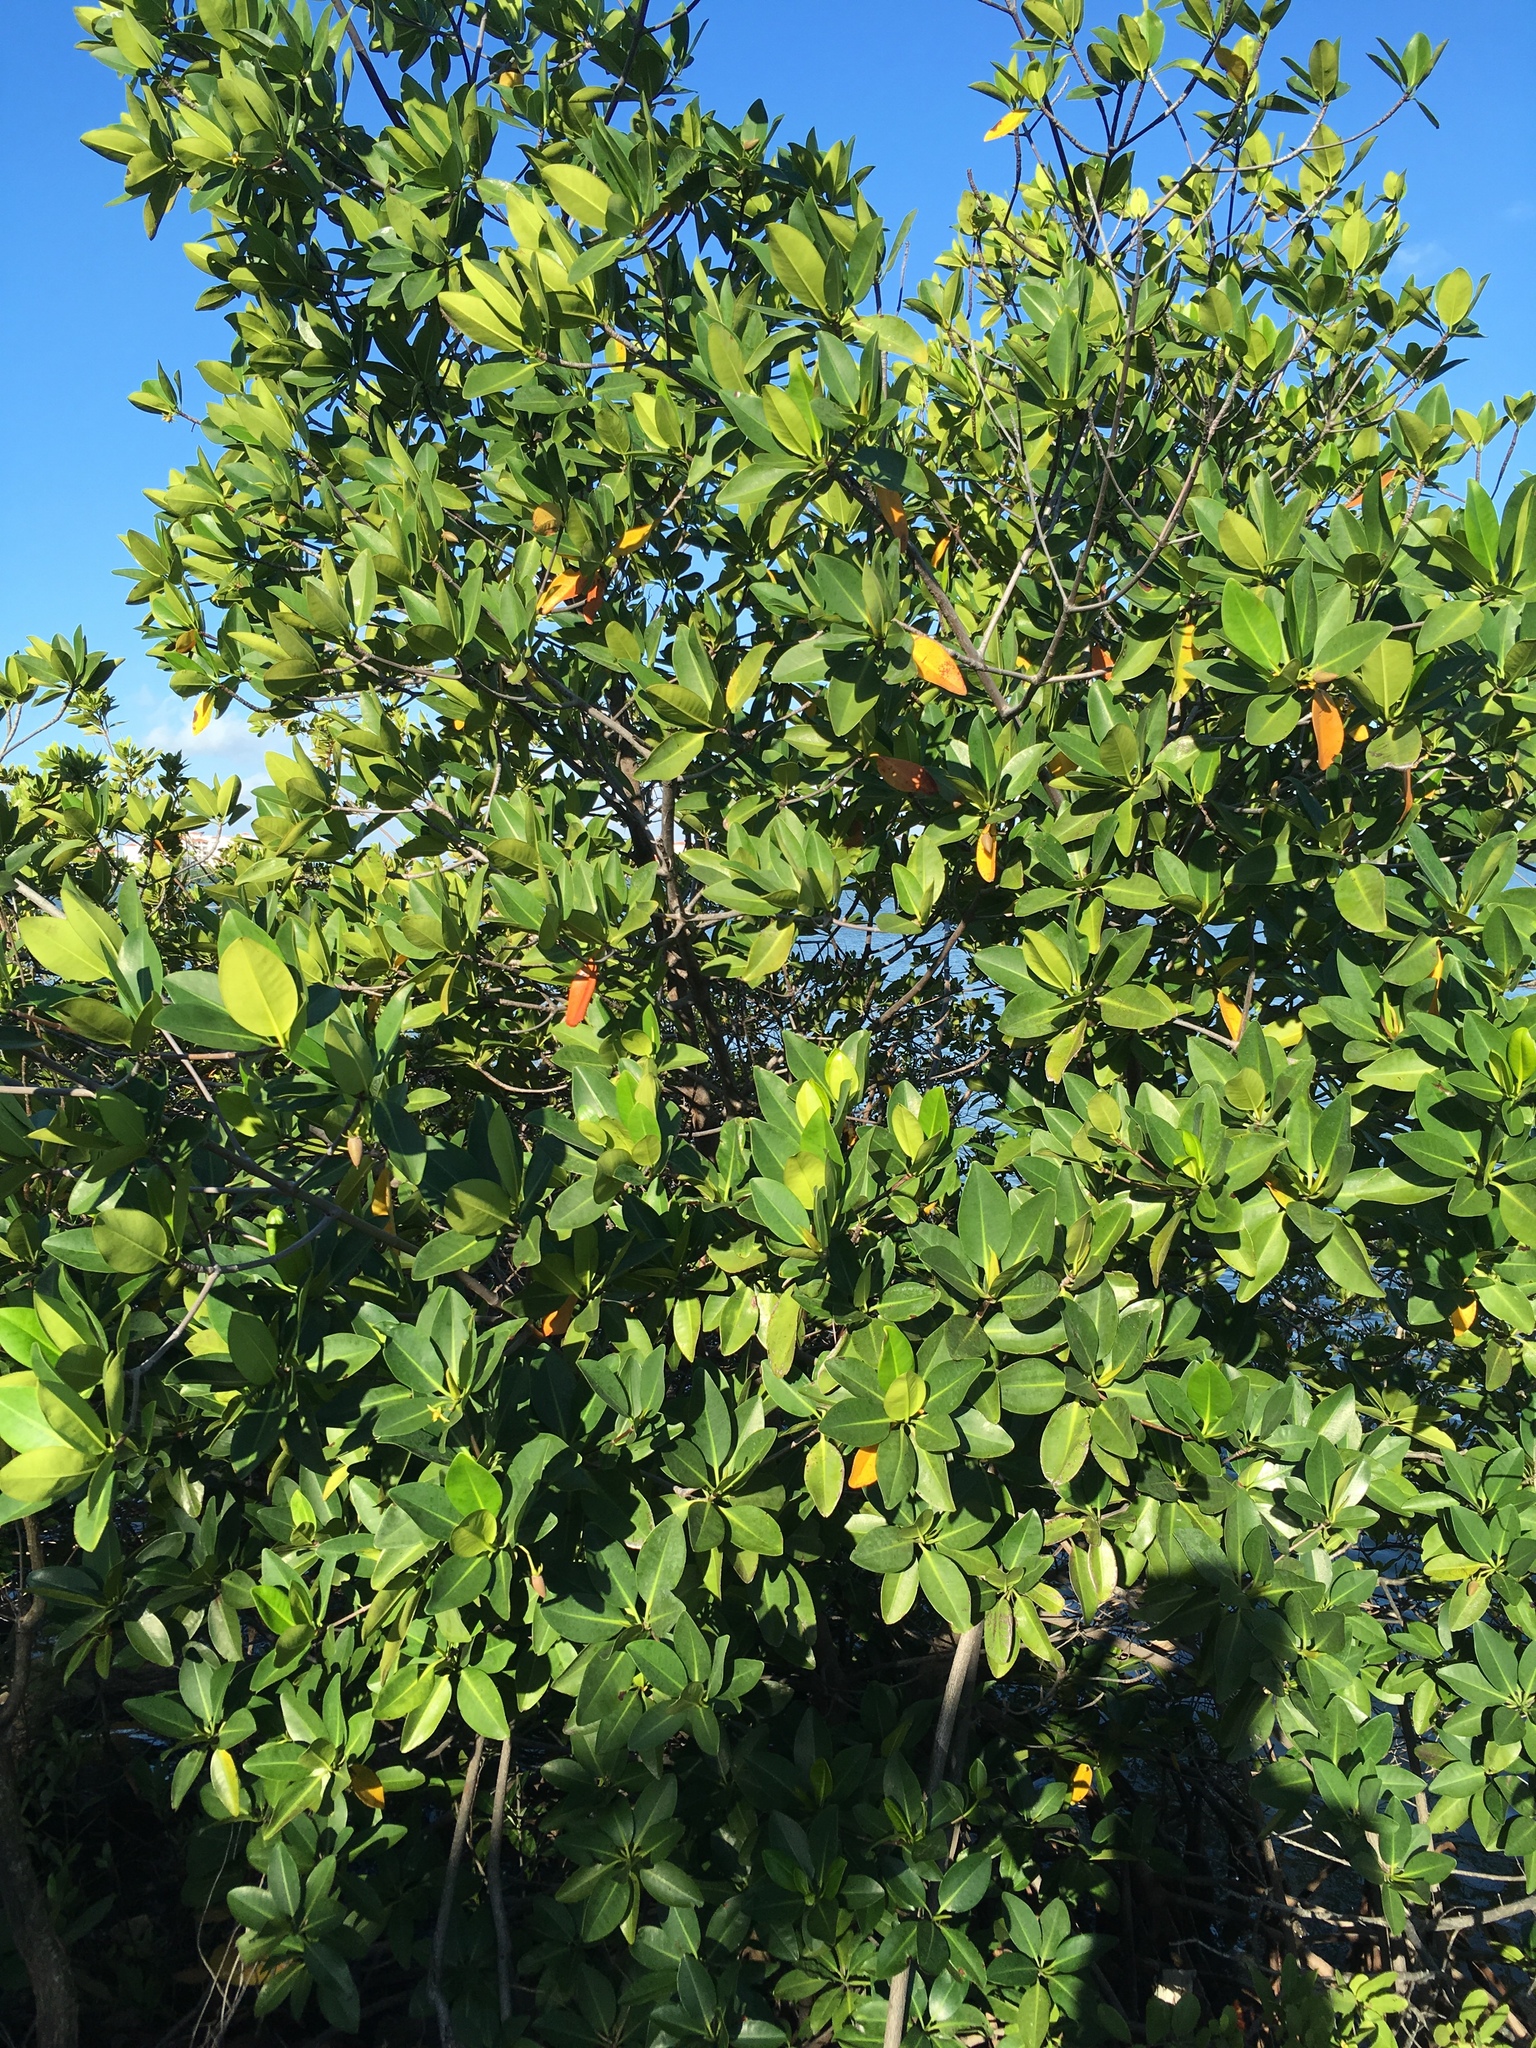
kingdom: Plantae
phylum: Tracheophyta
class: Magnoliopsida
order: Malpighiales
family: Rhizophoraceae
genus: Rhizophora
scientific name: Rhizophora mangle
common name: Red mangrove
